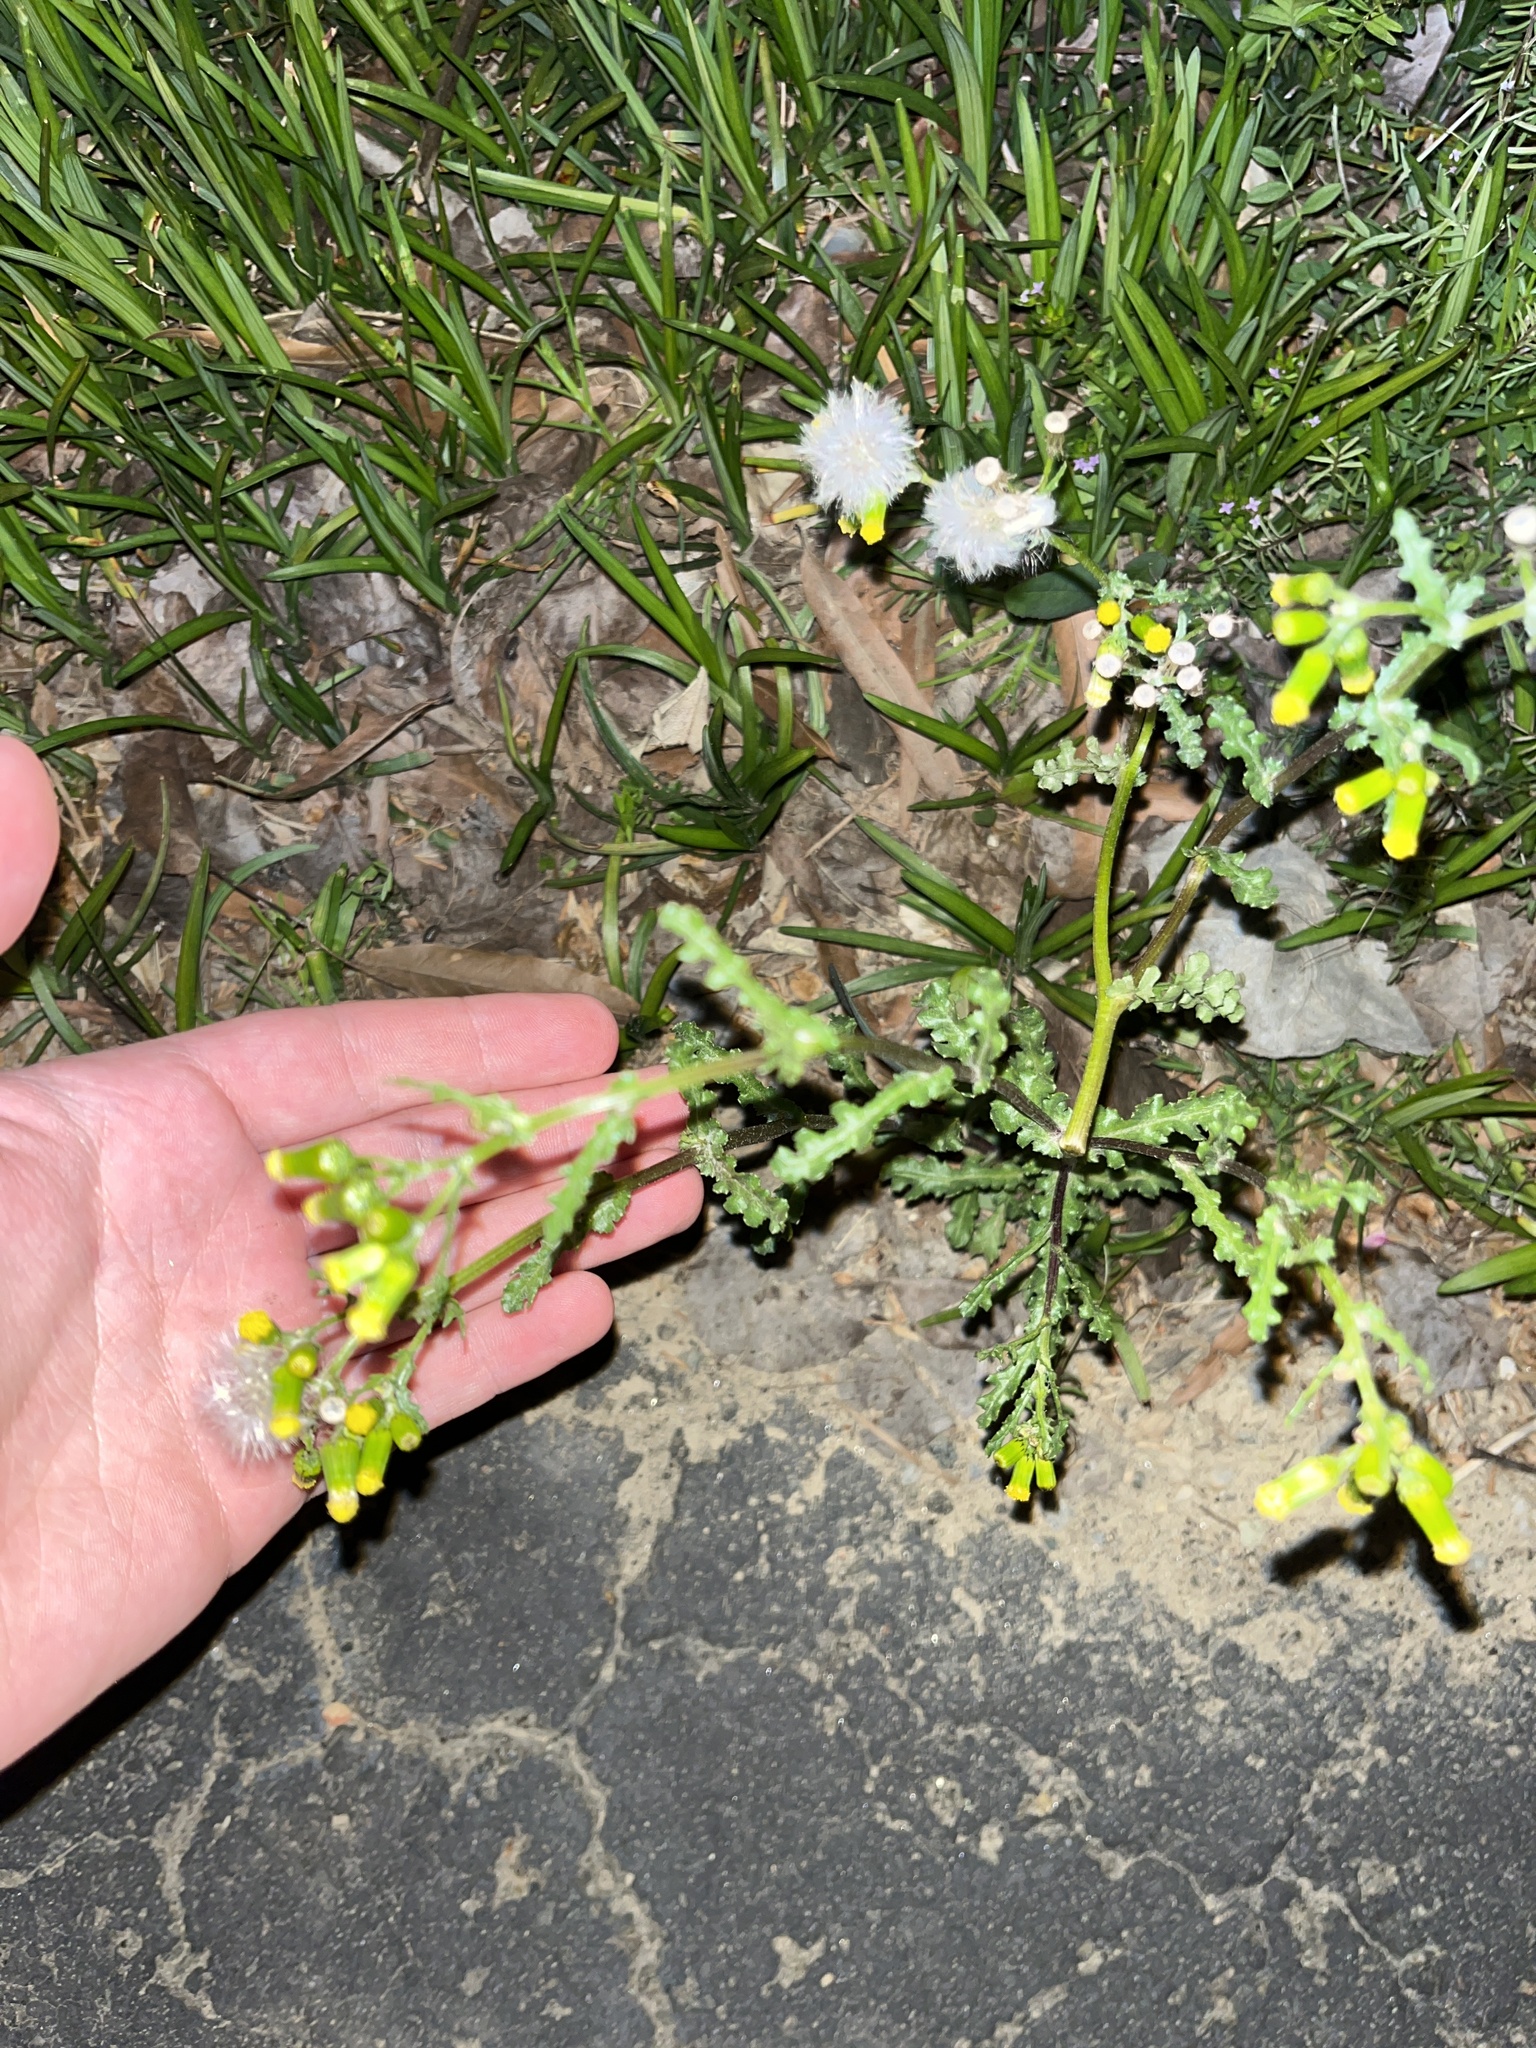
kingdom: Plantae
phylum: Tracheophyta
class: Magnoliopsida
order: Asterales
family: Asteraceae
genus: Senecio
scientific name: Senecio vulgaris
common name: Old-man-in-the-spring
